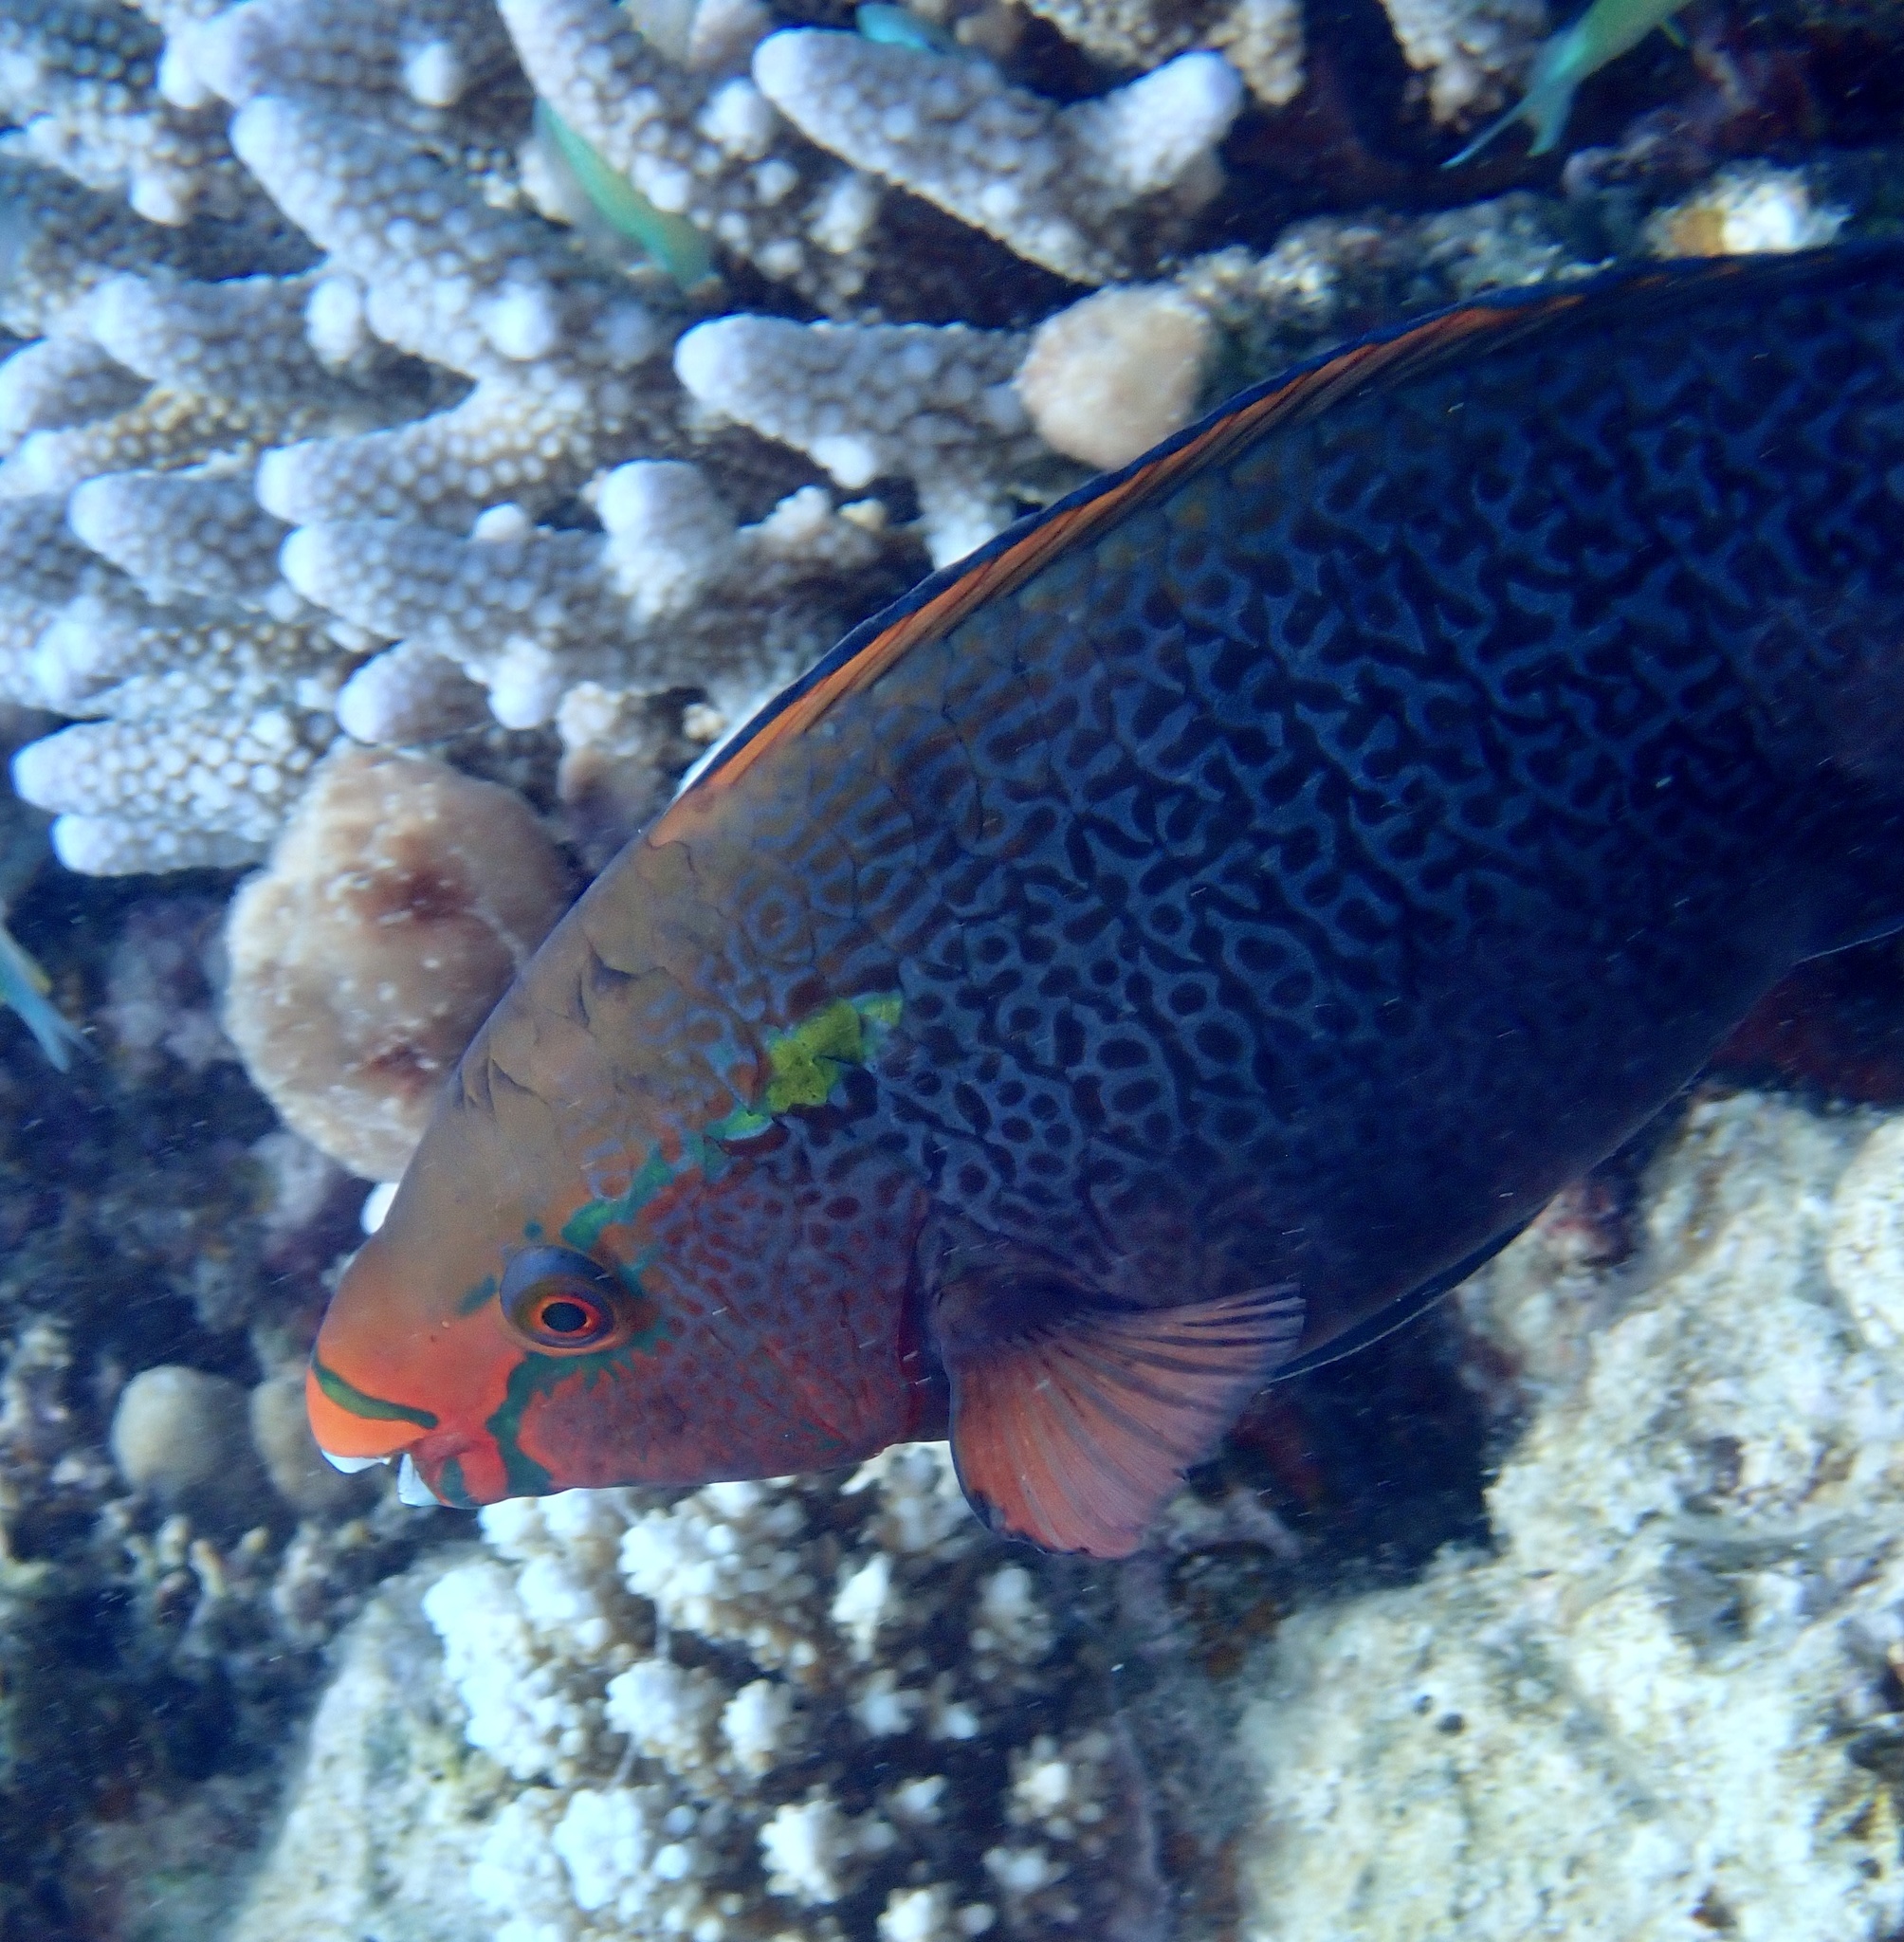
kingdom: Animalia
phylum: Chordata
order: Perciformes
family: Scaridae
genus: Scarus
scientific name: Scarus niger
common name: Dusky parrotfish
